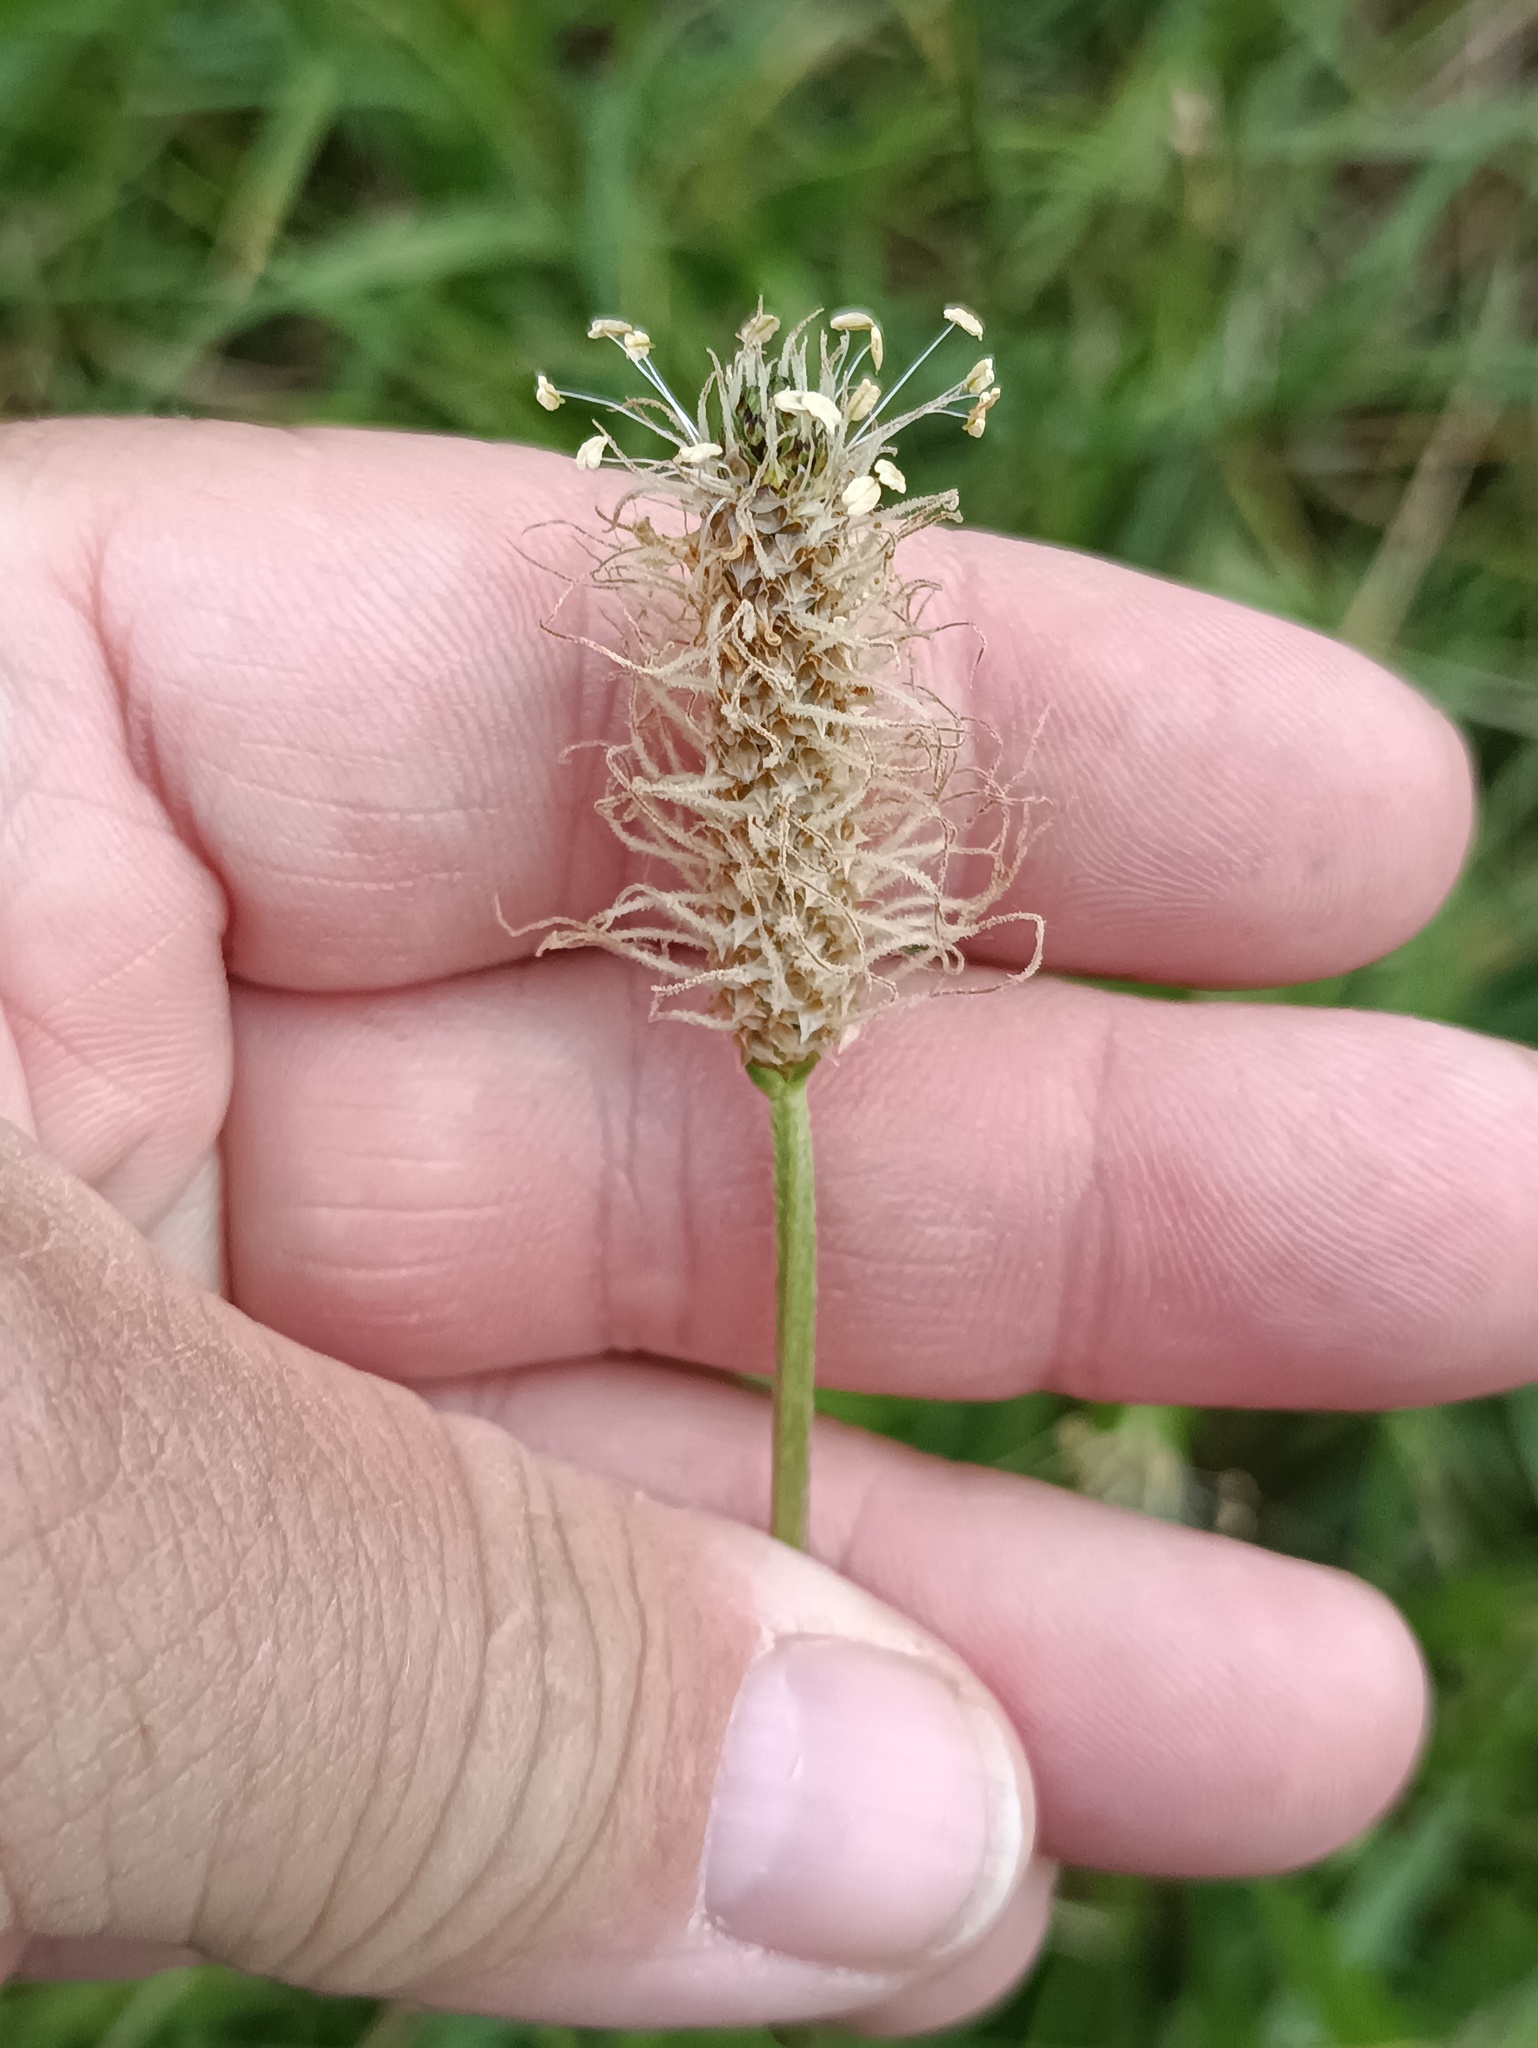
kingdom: Plantae
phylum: Tracheophyta
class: Magnoliopsida
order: Lamiales
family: Plantaginaceae
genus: Plantago
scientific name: Plantago lanceolata
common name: Ribwort plantain
